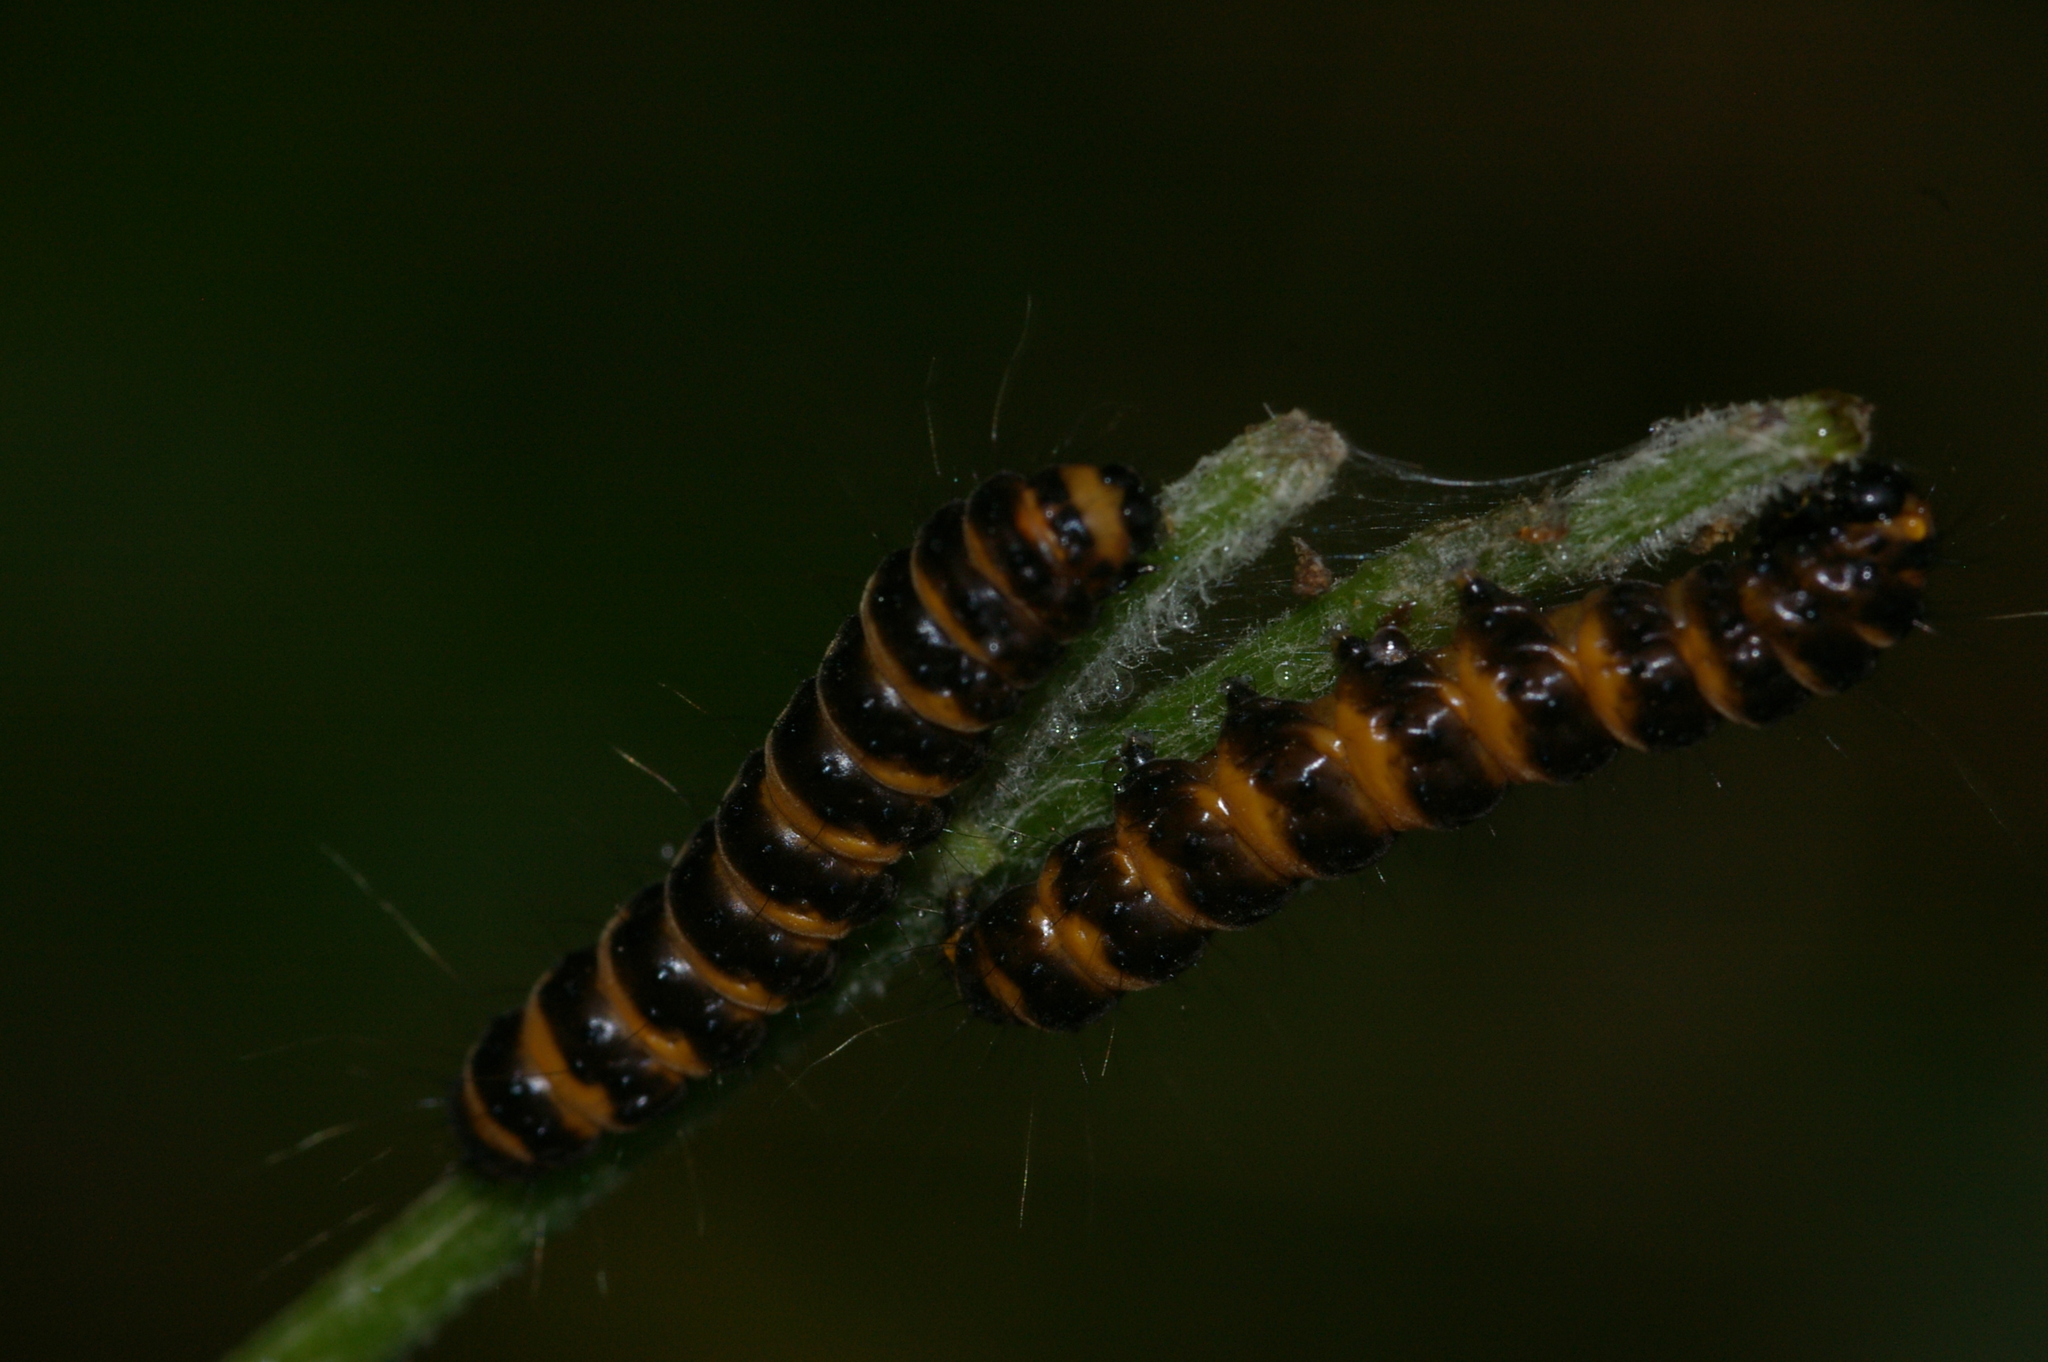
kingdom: Animalia
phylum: Arthropoda
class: Insecta
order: Lepidoptera
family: Erebidae
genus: Tyria
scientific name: Tyria jacobaeae
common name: Cinnabar
